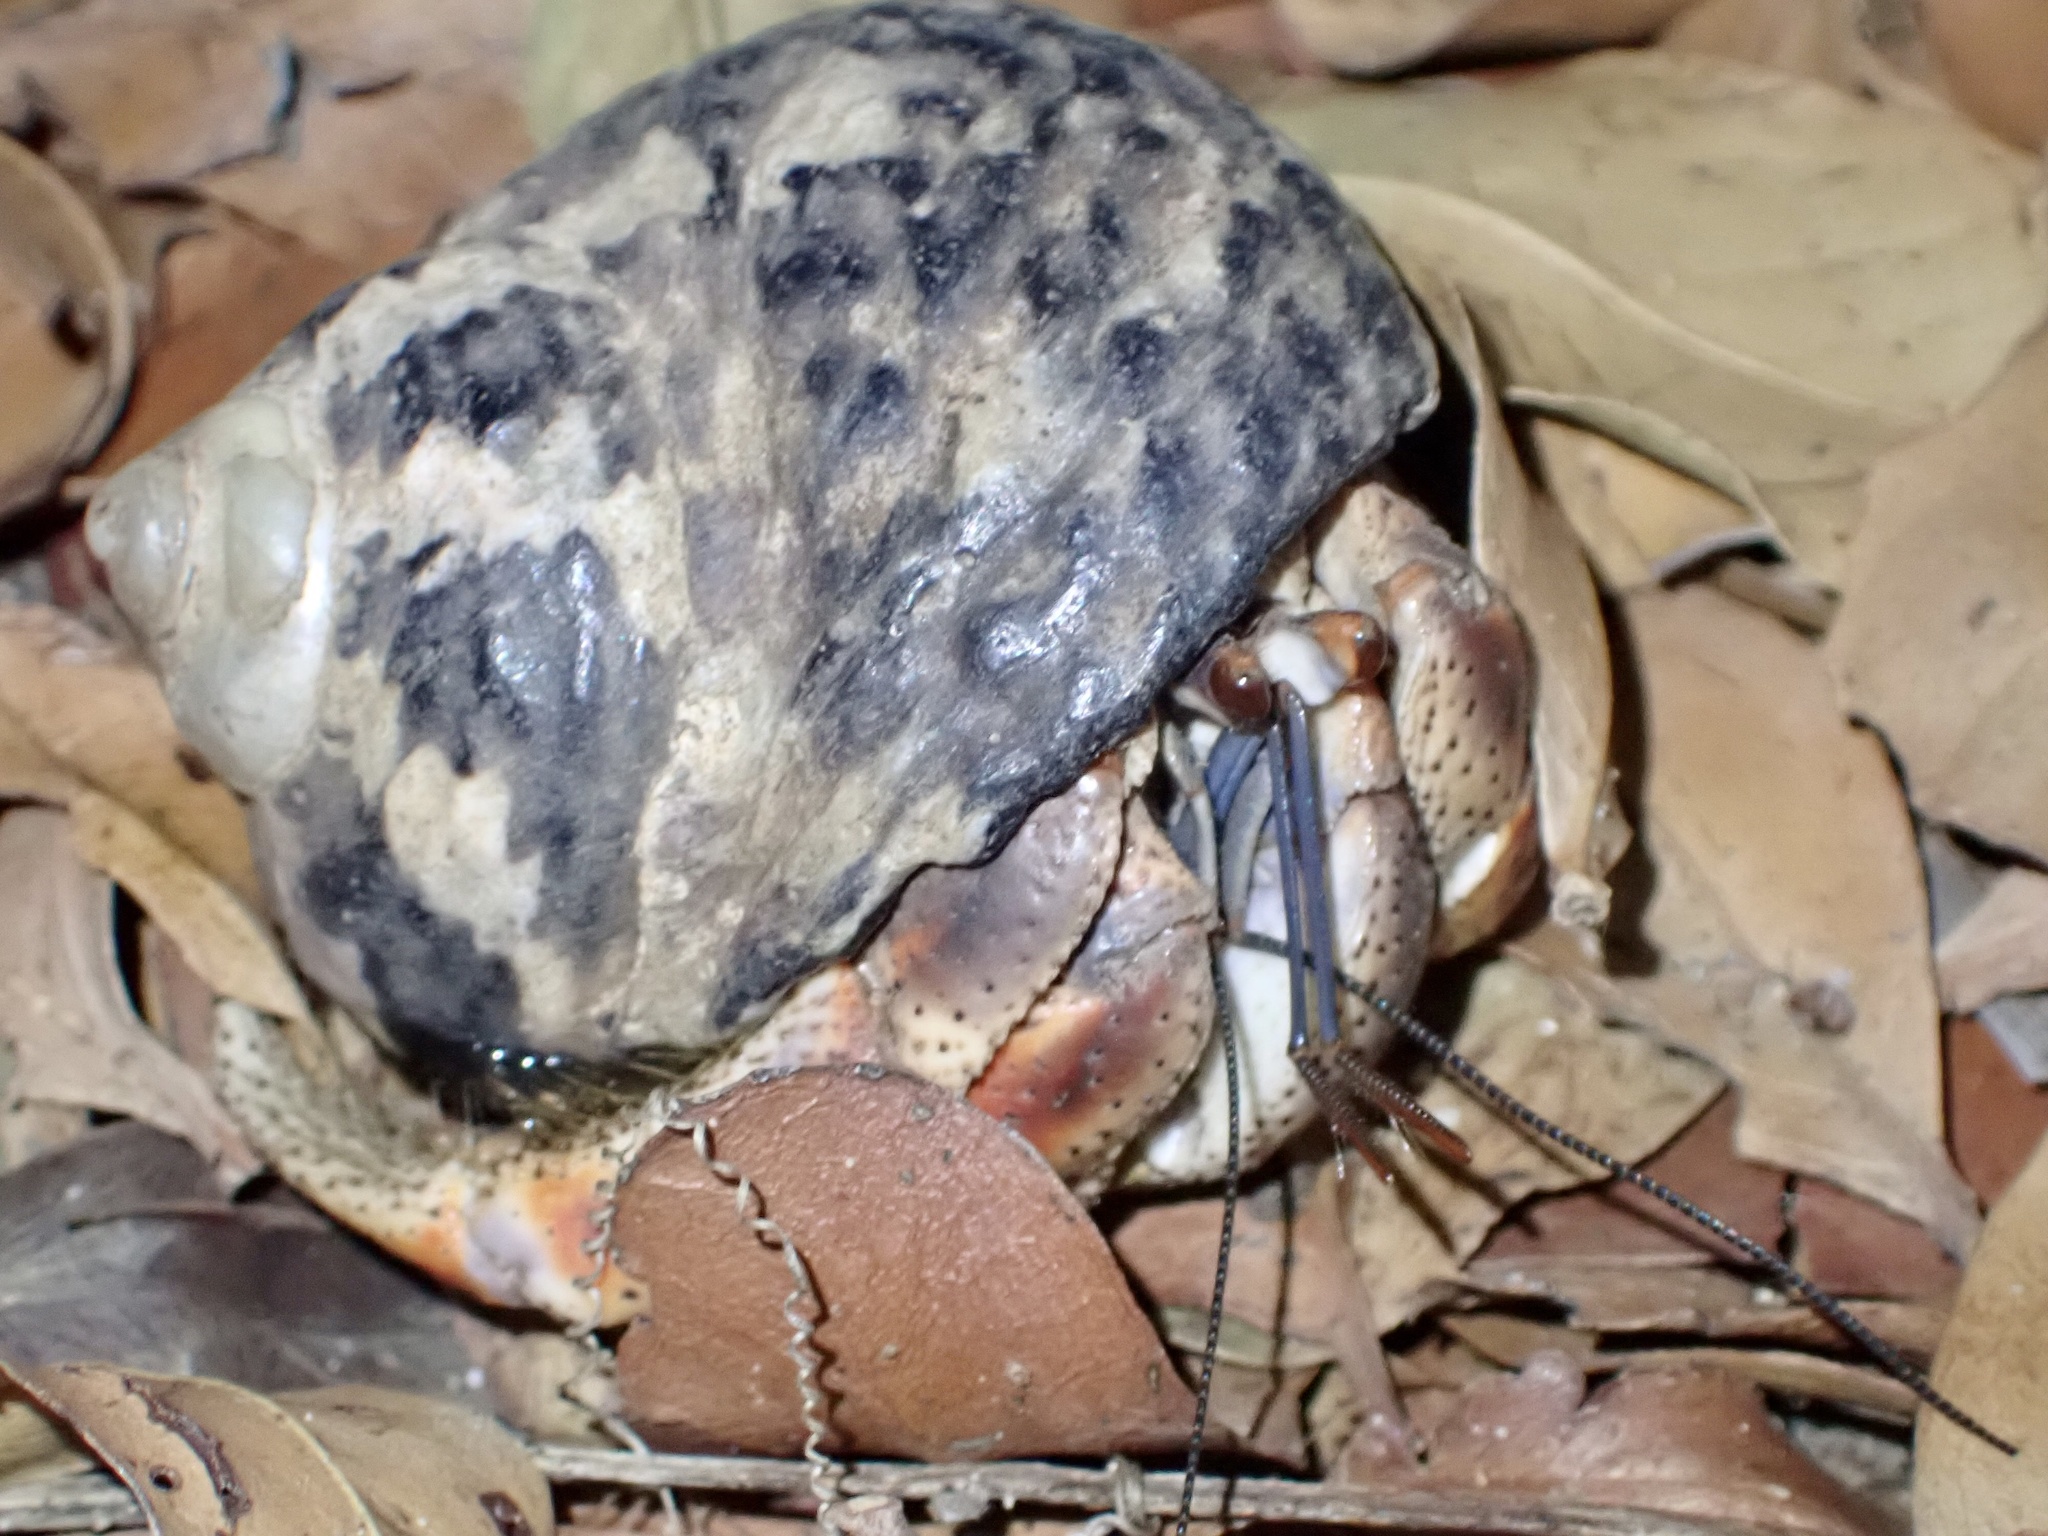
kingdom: Animalia
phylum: Arthropoda
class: Malacostraca
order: Decapoda
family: Coenobitidae
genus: Coenobita
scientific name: Coenobita clypeatus
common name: Caribbean hermit crab
